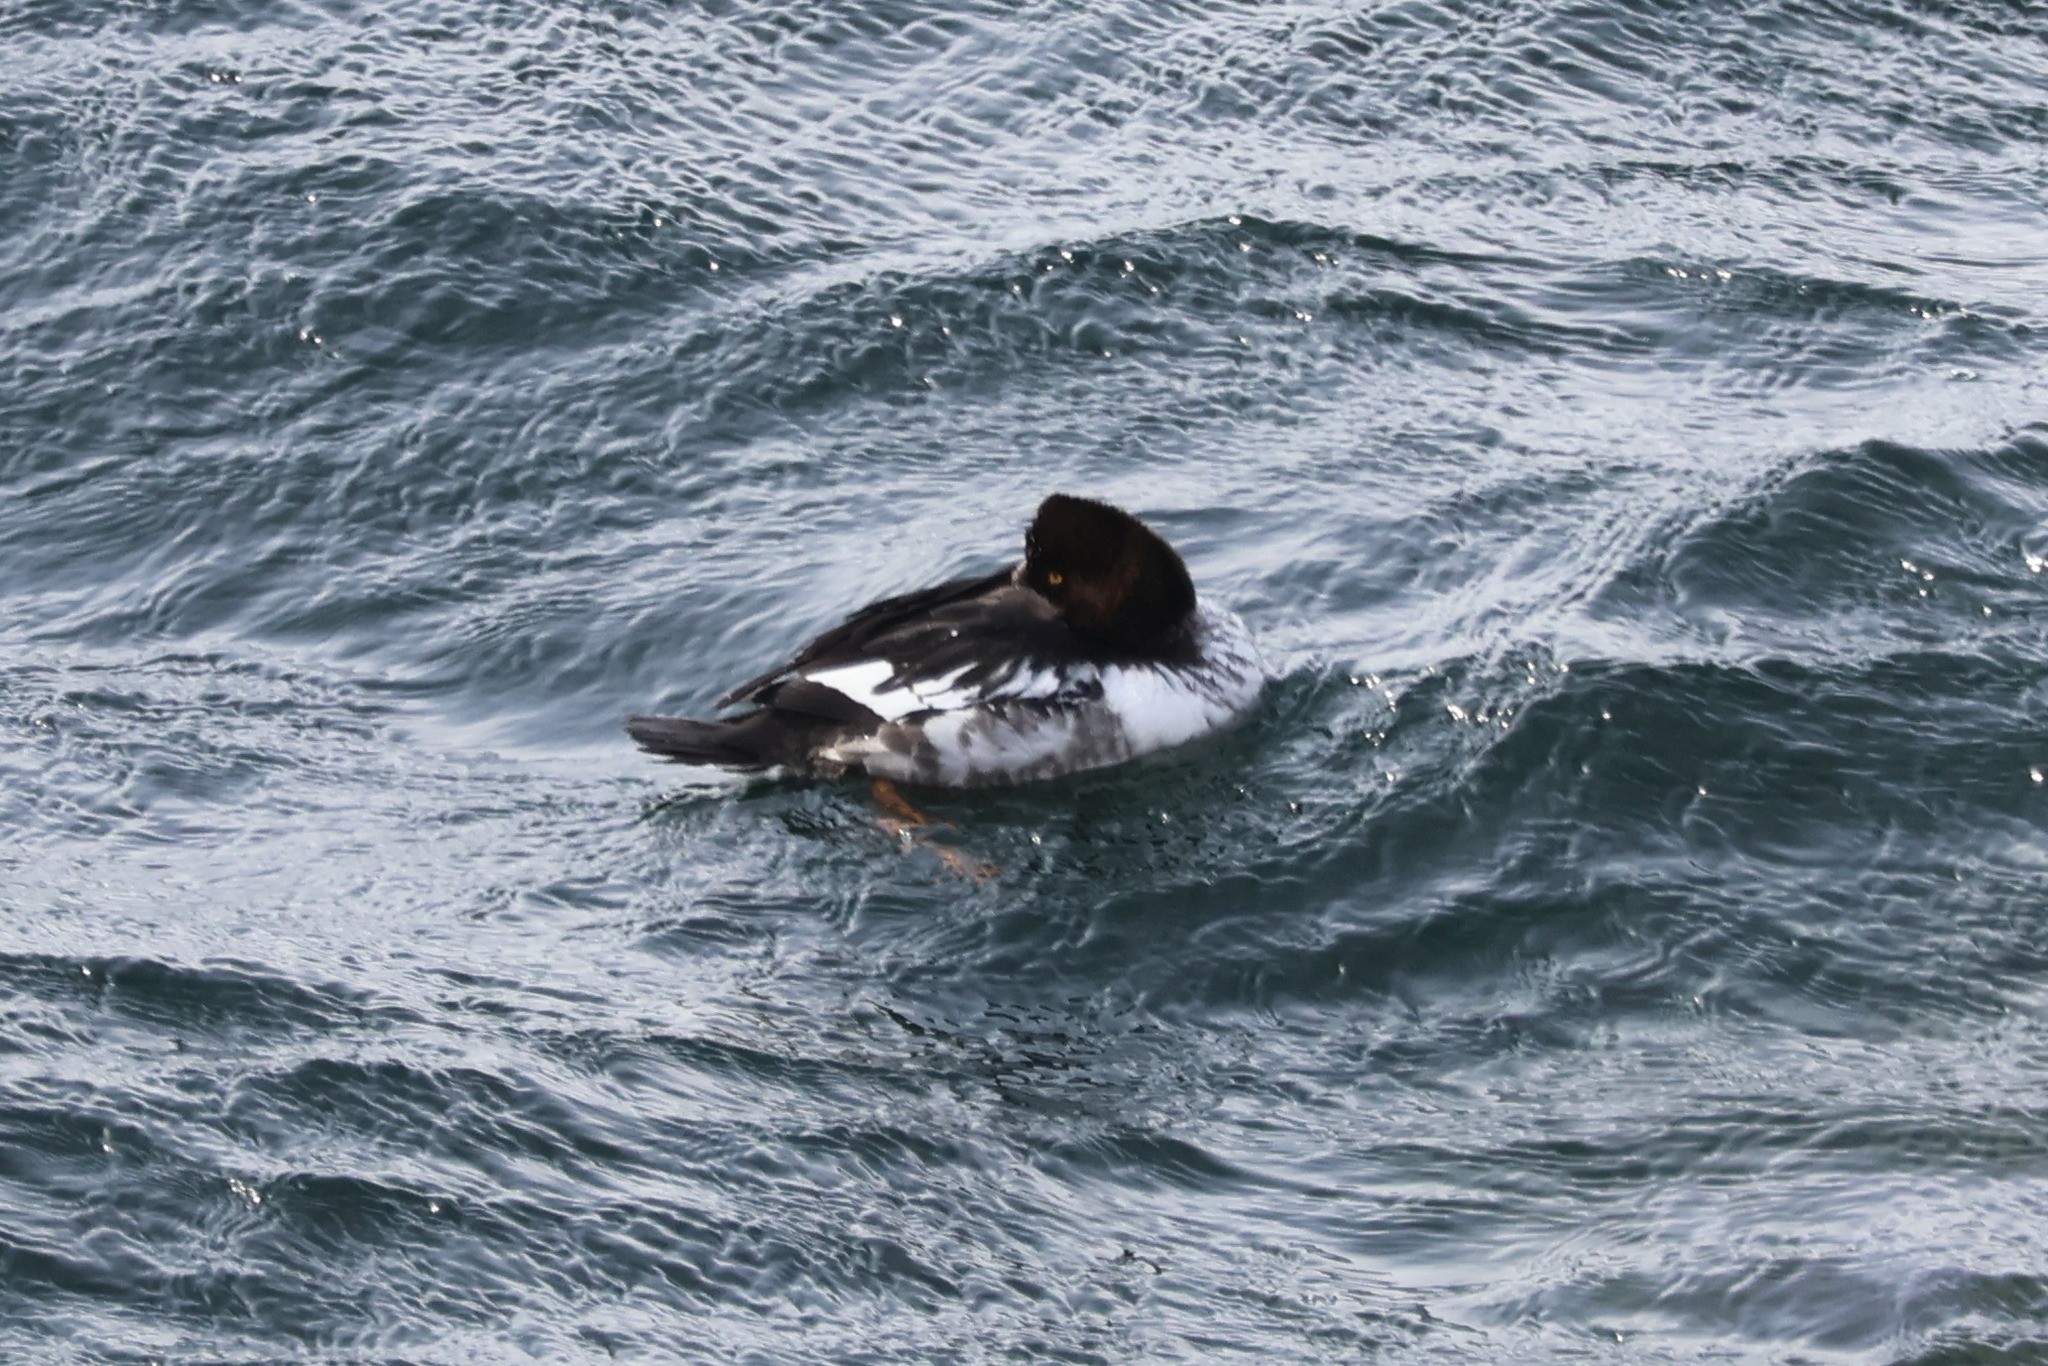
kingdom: Animalia
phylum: Chordata
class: Aves
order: Anseriformes
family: Anatidae
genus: Bucephala
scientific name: Bucephala clangula
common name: Common goldeneye
